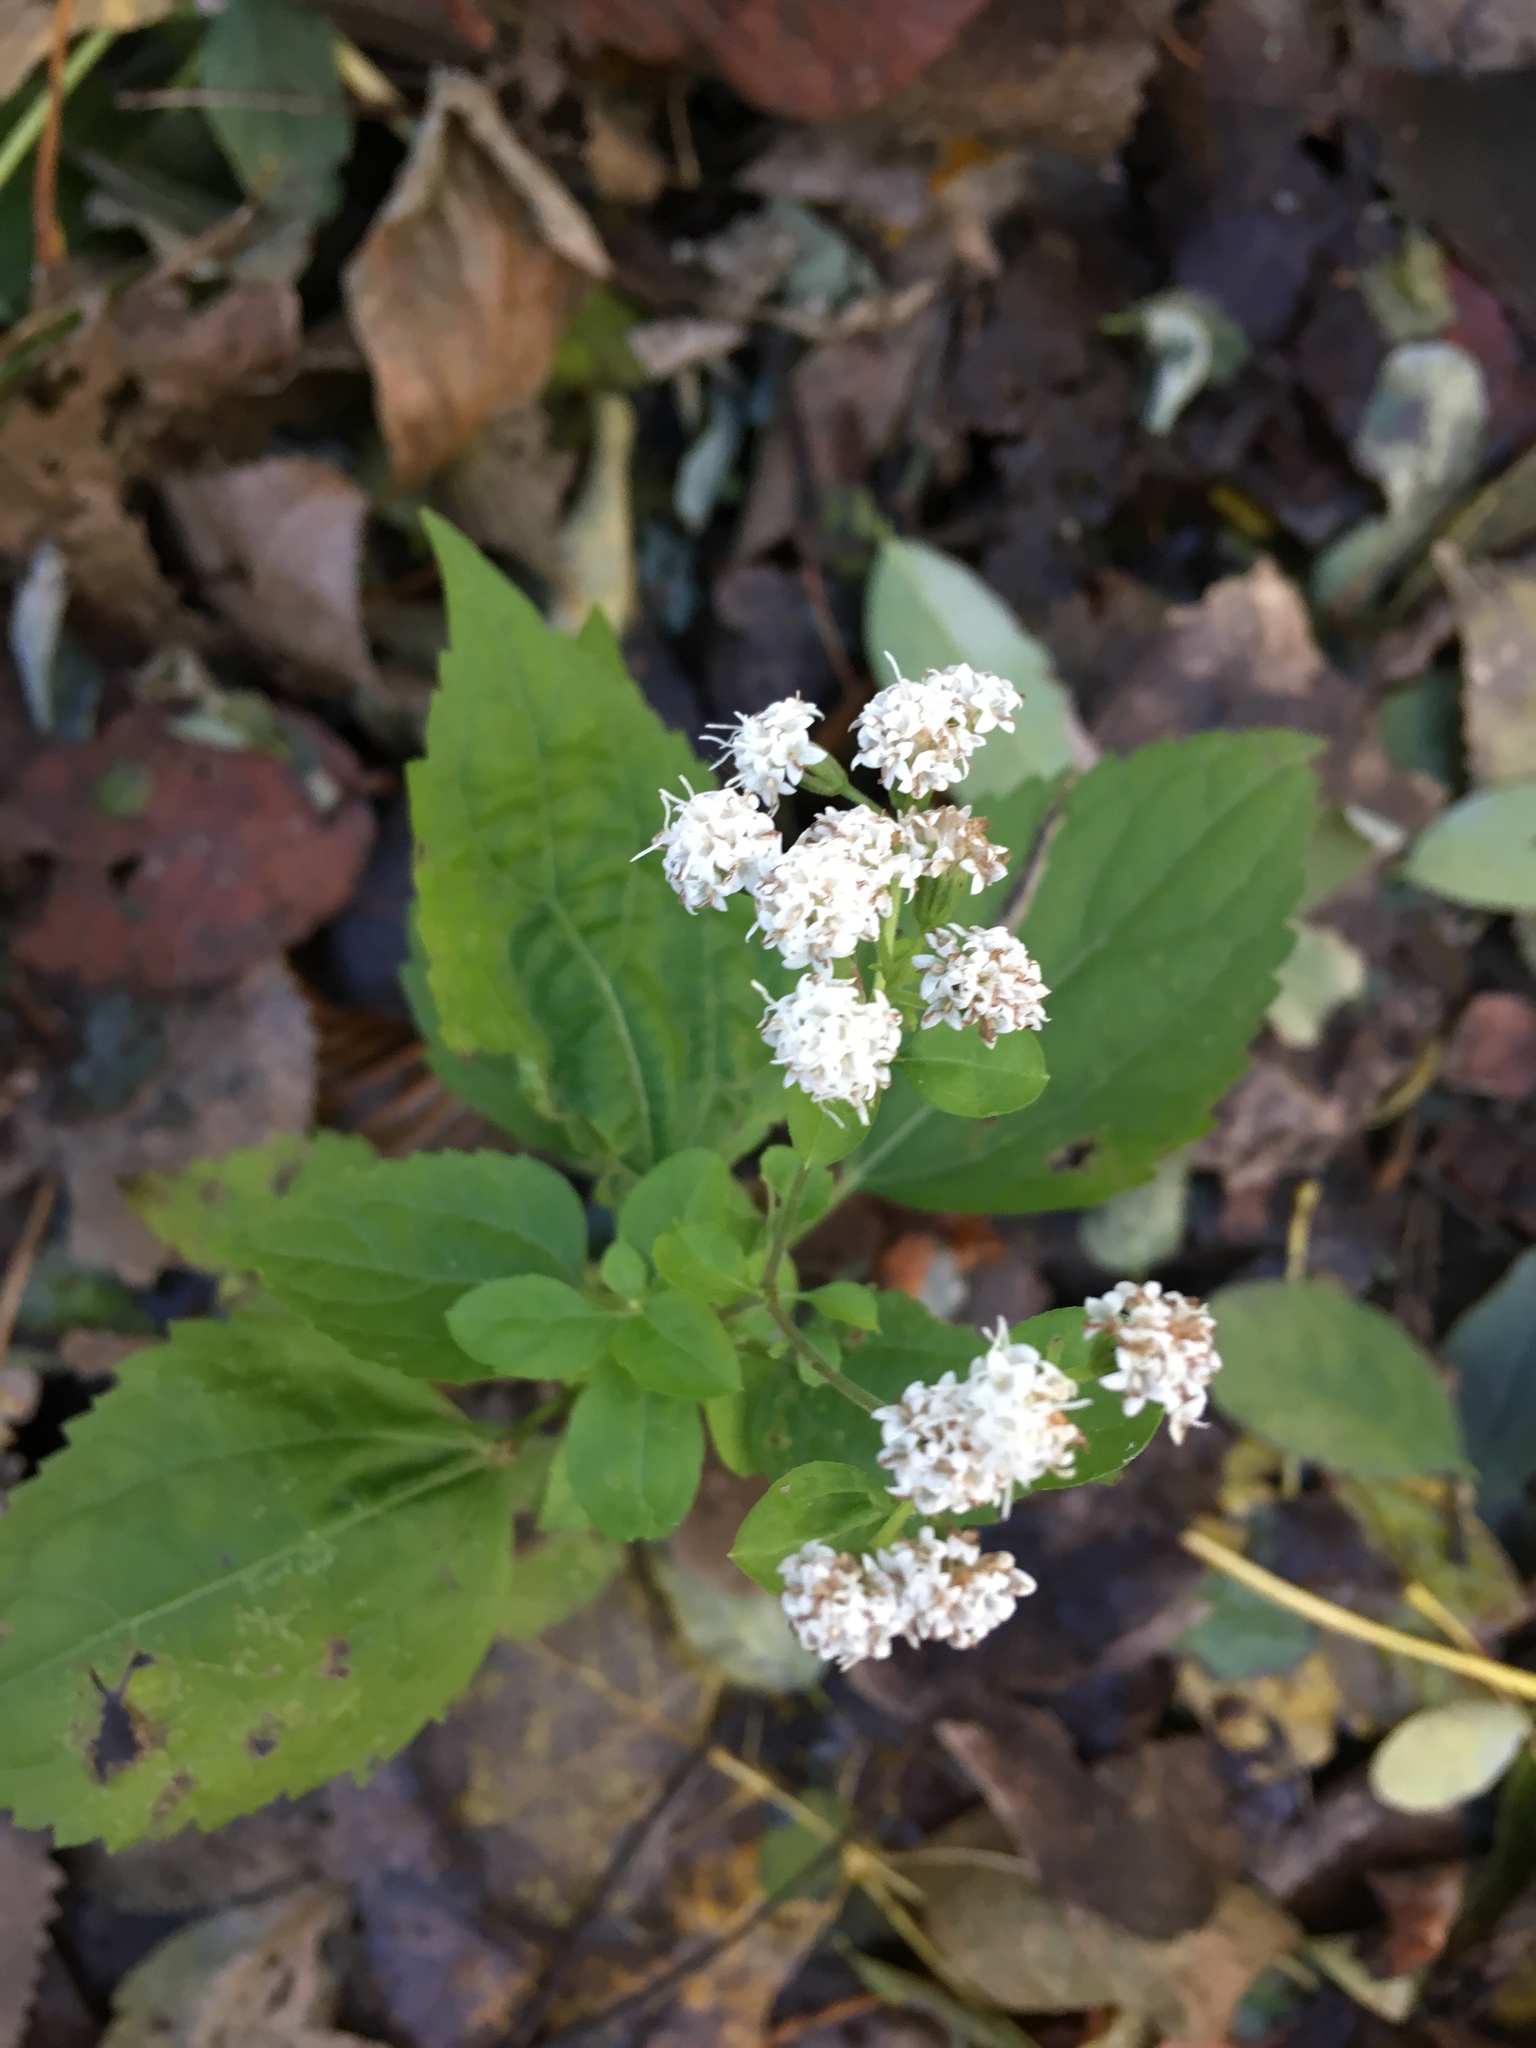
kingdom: Plantae
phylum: Tracheophyta
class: Magnoliopsida
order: Asterales
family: Asteraceae
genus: Ageratina
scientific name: Ageratina altissima
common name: White snakeroot
